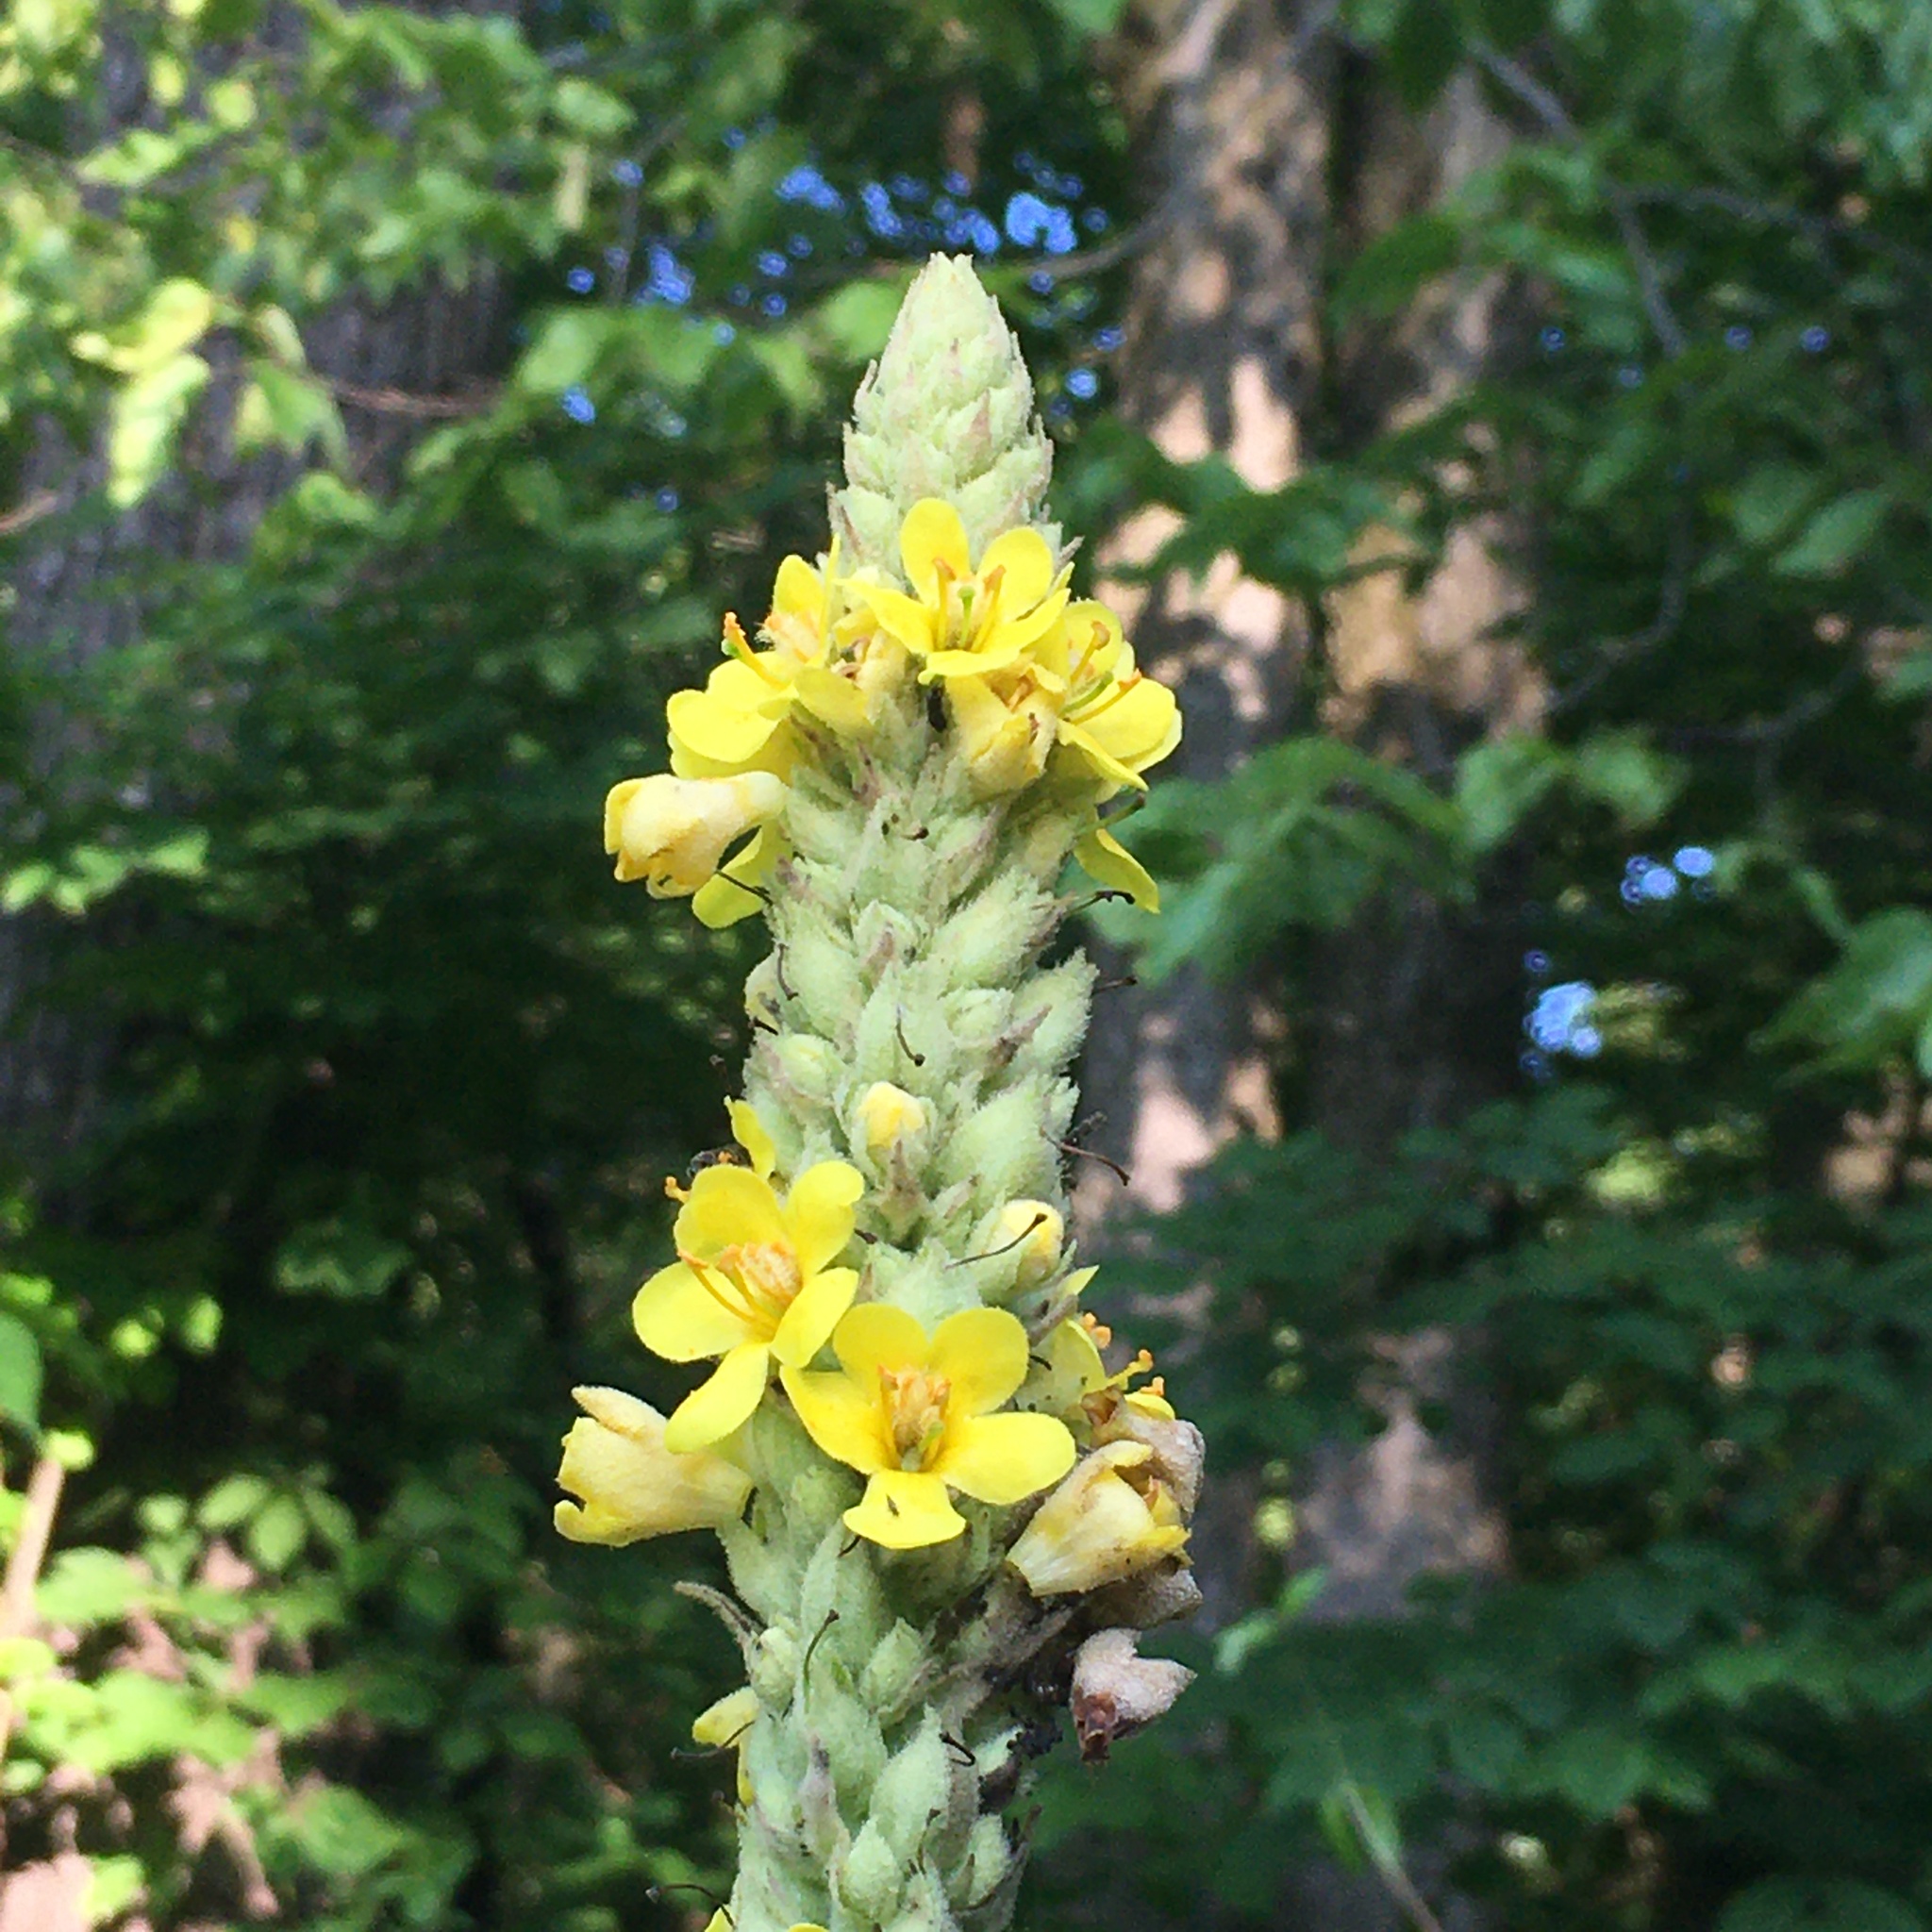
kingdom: Plantae
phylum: Tracheophyta
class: Magnoliopsida
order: Lamiales
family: Scrophulariaceae
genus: Verbascum
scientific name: Verbascum thapsus
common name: Common mullein
